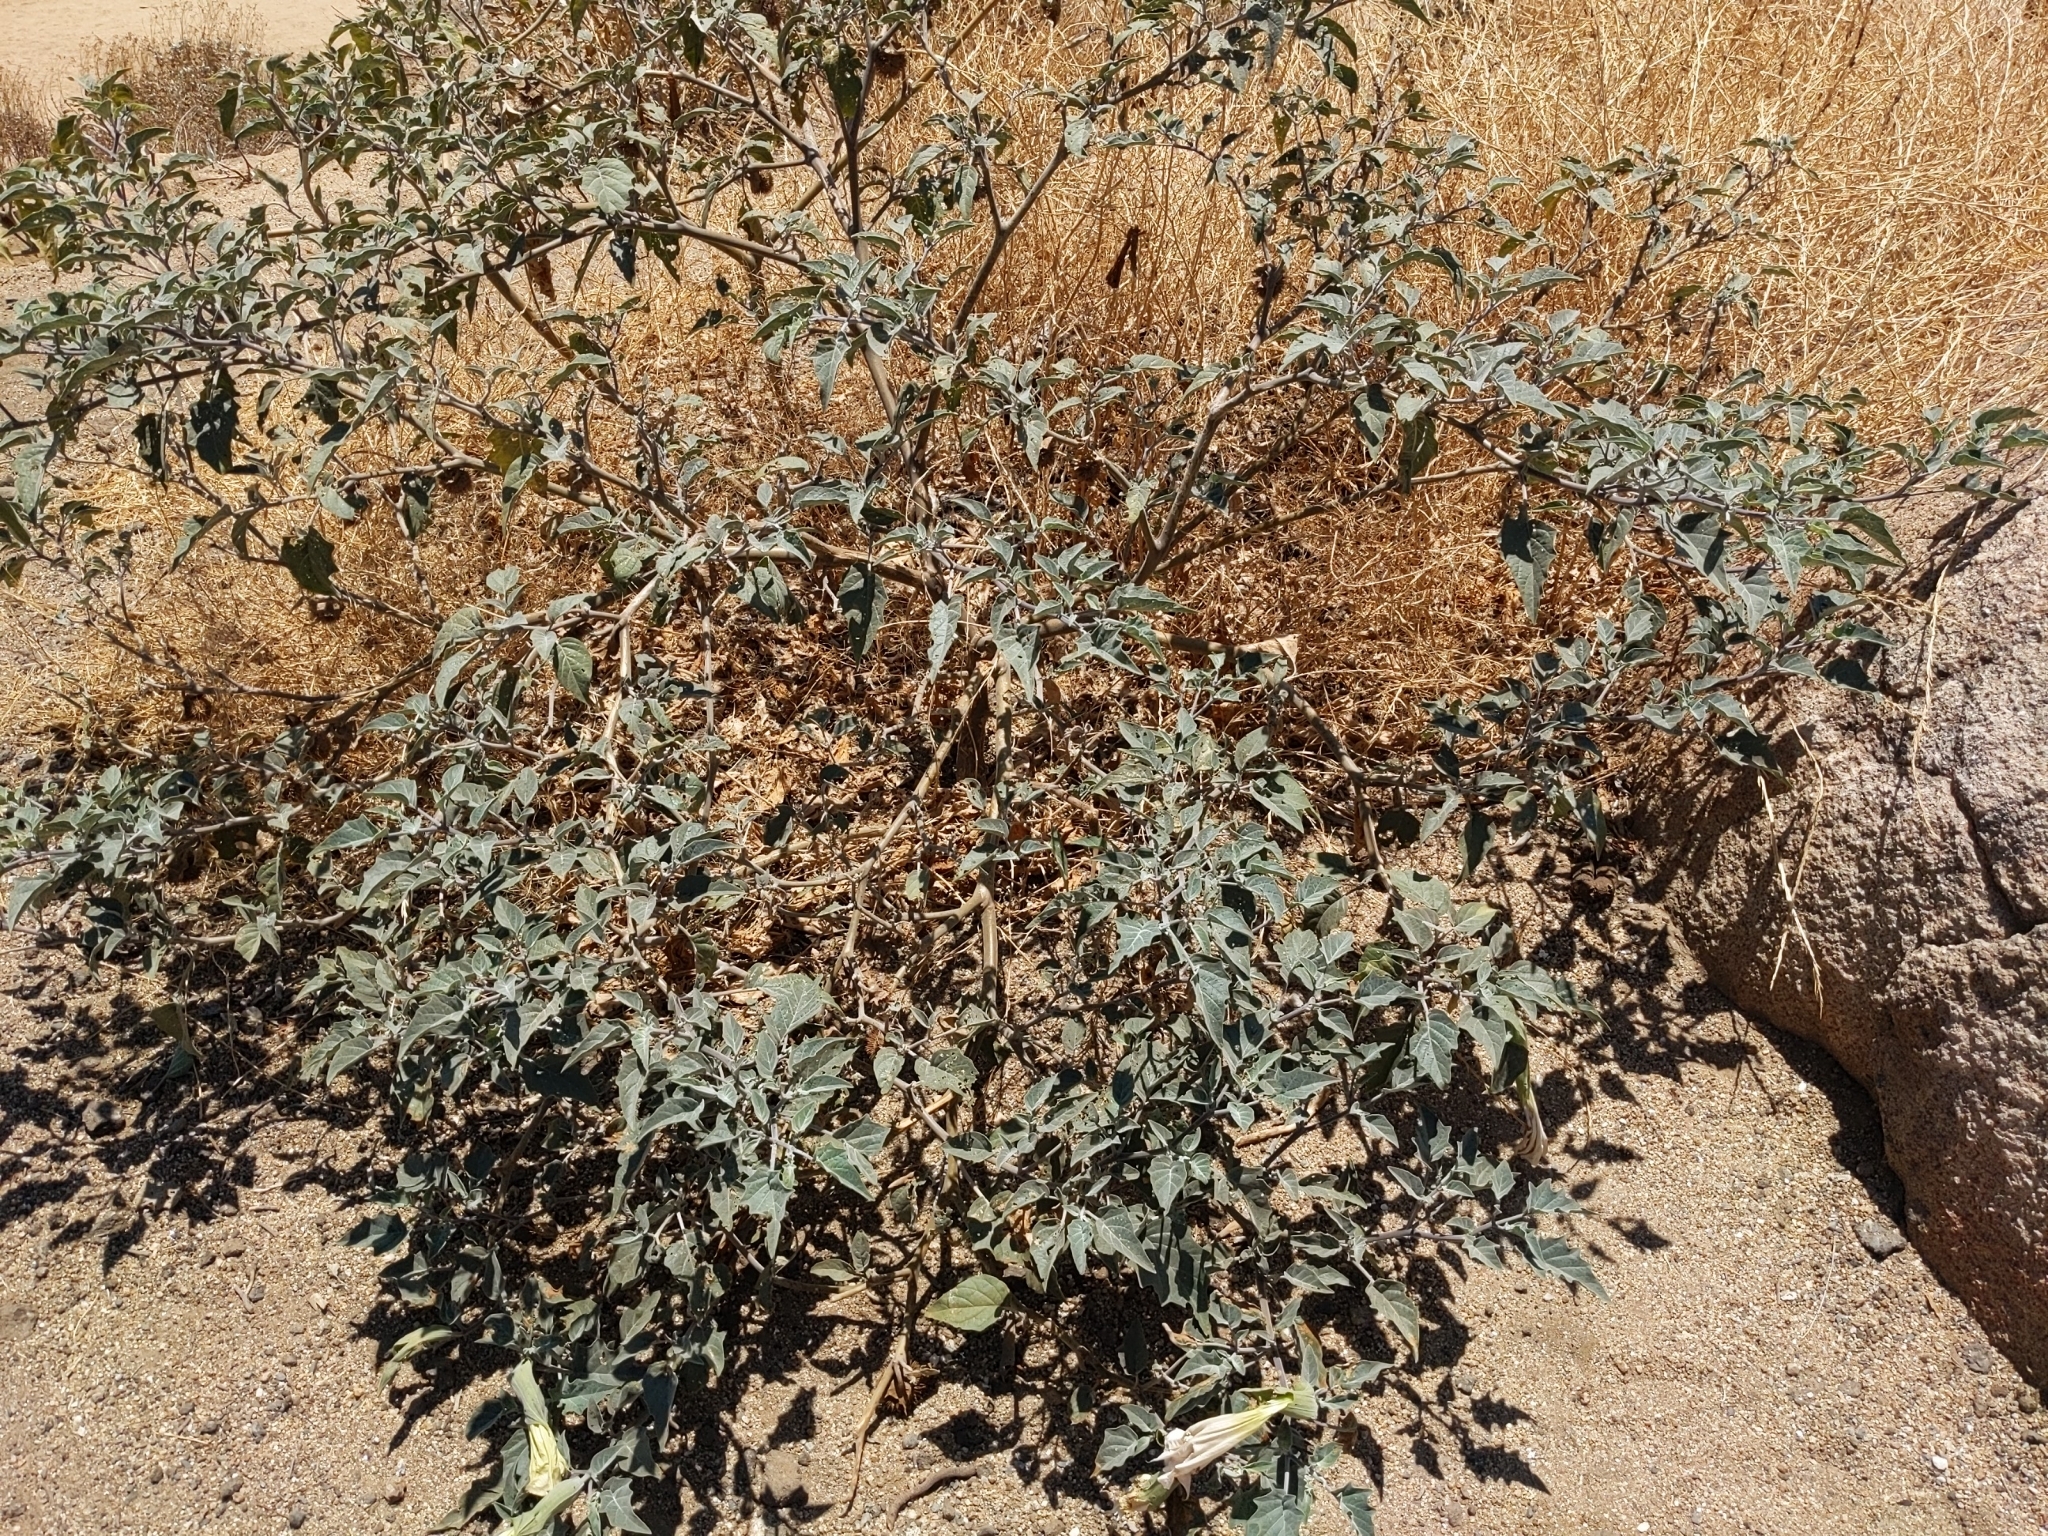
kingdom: Plantae
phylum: Tracheophyta
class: Magnoliopsida
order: Solanales
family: Solanaceae
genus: Datura
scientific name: Datura wrightii
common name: Sacred thorn-apple
